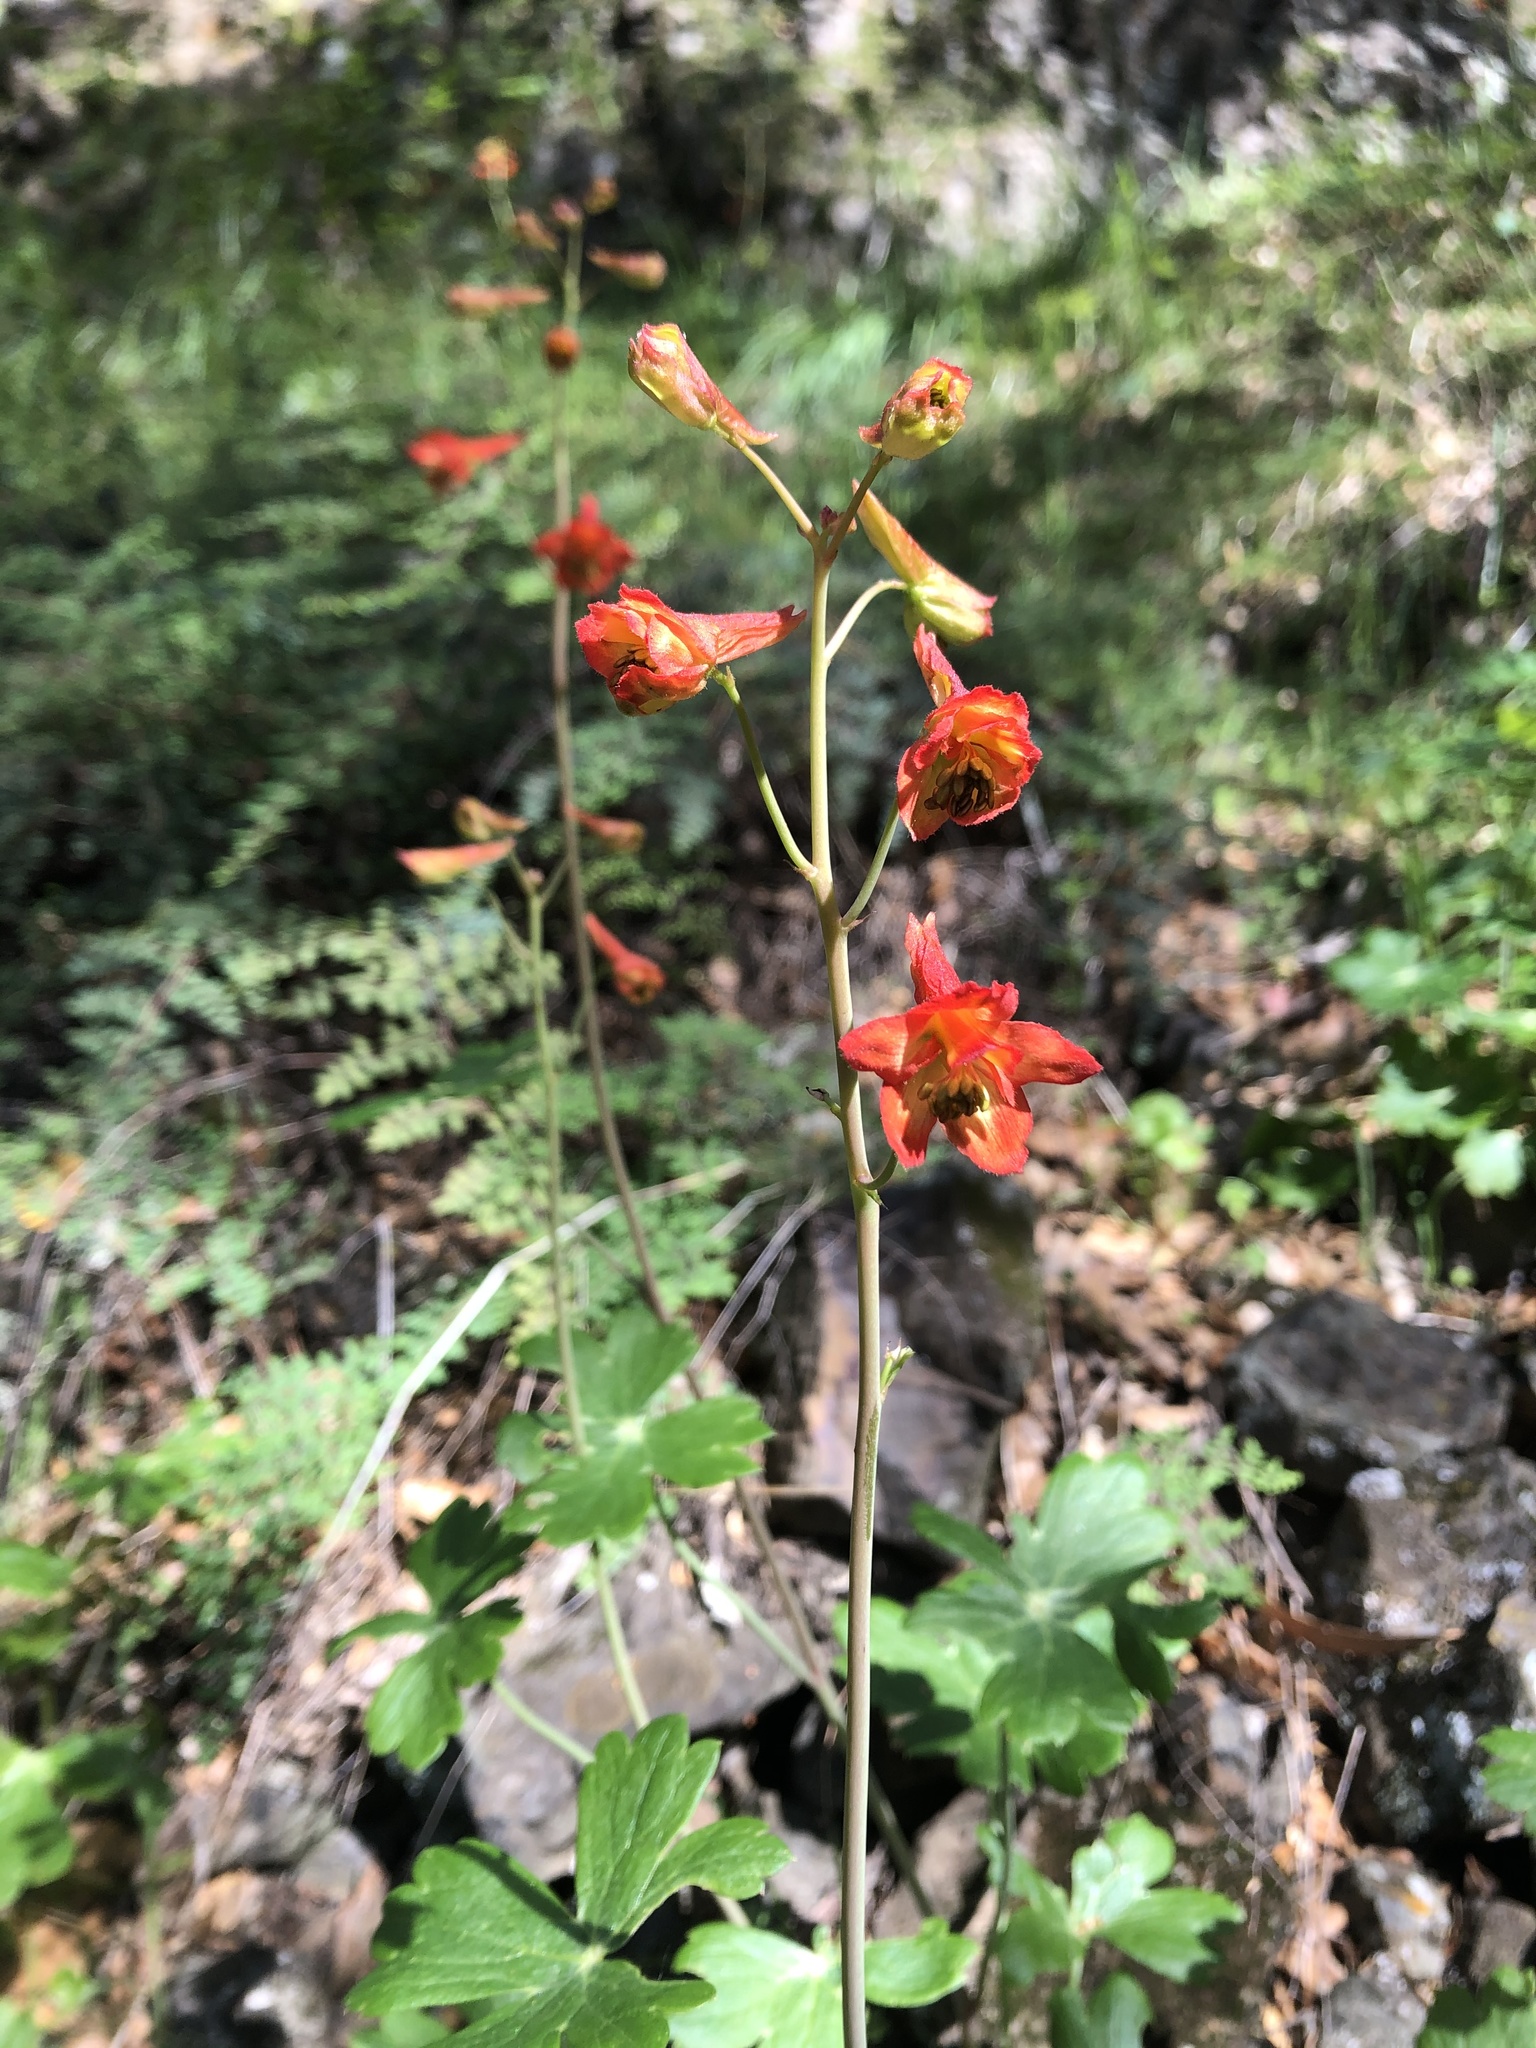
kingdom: Plantae
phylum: Tracheophyta
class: Magnoliopsida
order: Ranunculales
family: Ranunculaceae
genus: Delphinium
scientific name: Delphinium nudicaule
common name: Red larkspur
